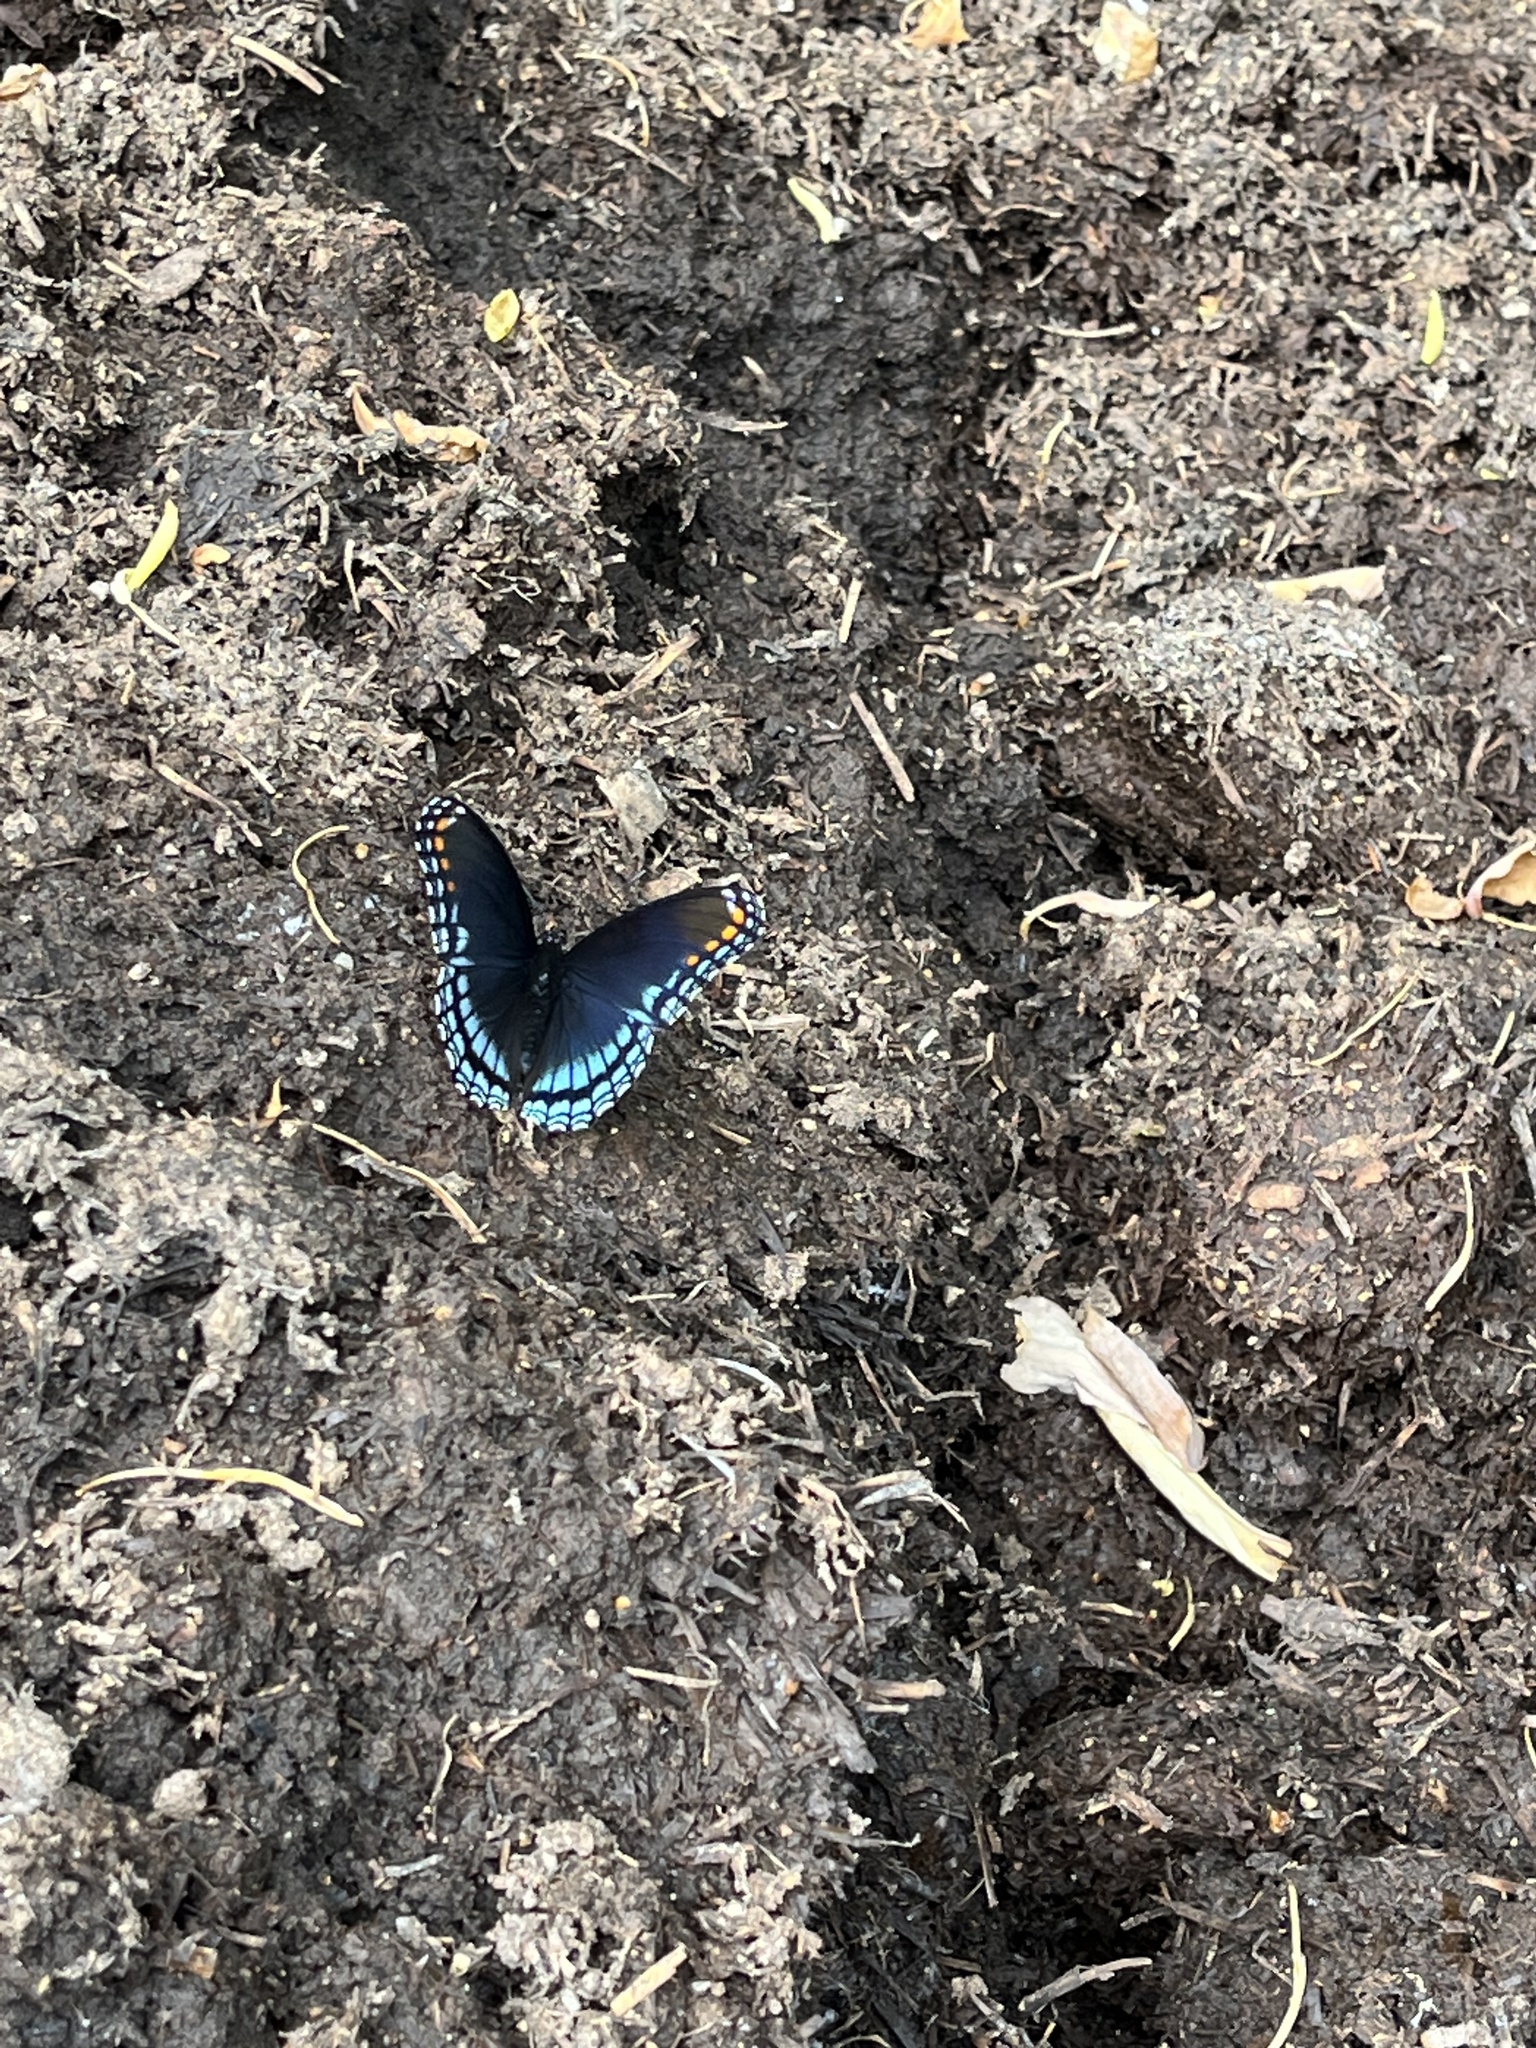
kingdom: Animalia
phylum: Arthropoda
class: Insecta
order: Lepidoptera
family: Nymphalidae
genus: Limenitis
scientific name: Limenitis astyanax
